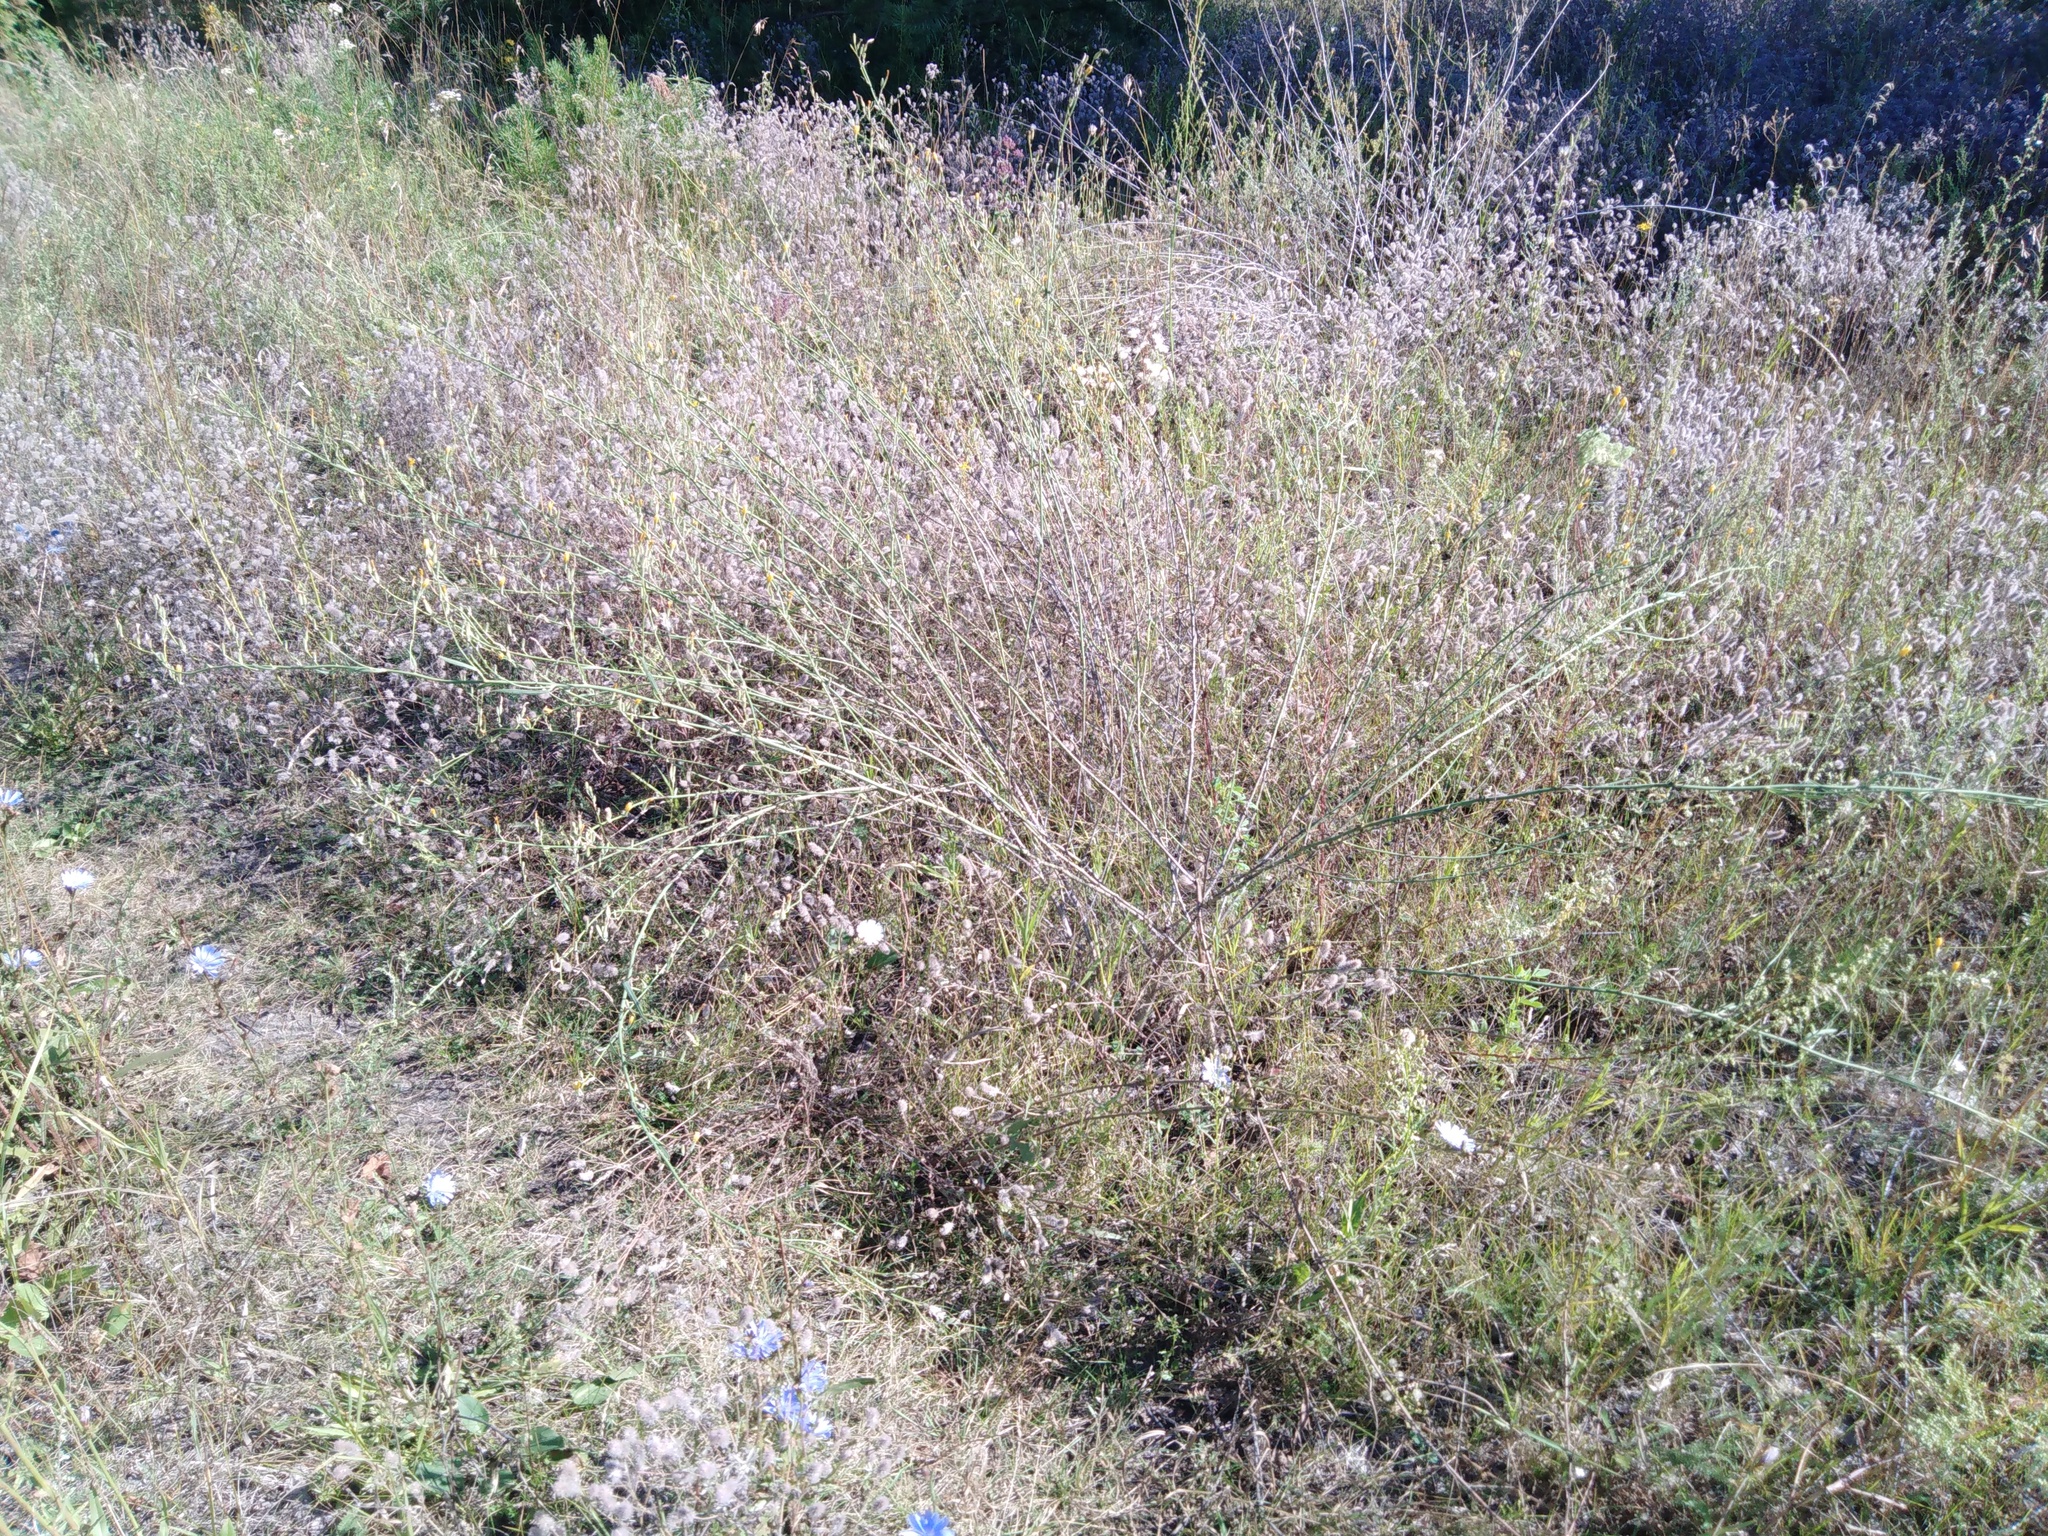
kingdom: Plantae
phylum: Tracheophyta
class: Magnoliopsida
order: Asterales
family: Asteraceae
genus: Chondrilla
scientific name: Chondrilla juncea
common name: Skeleton weed
